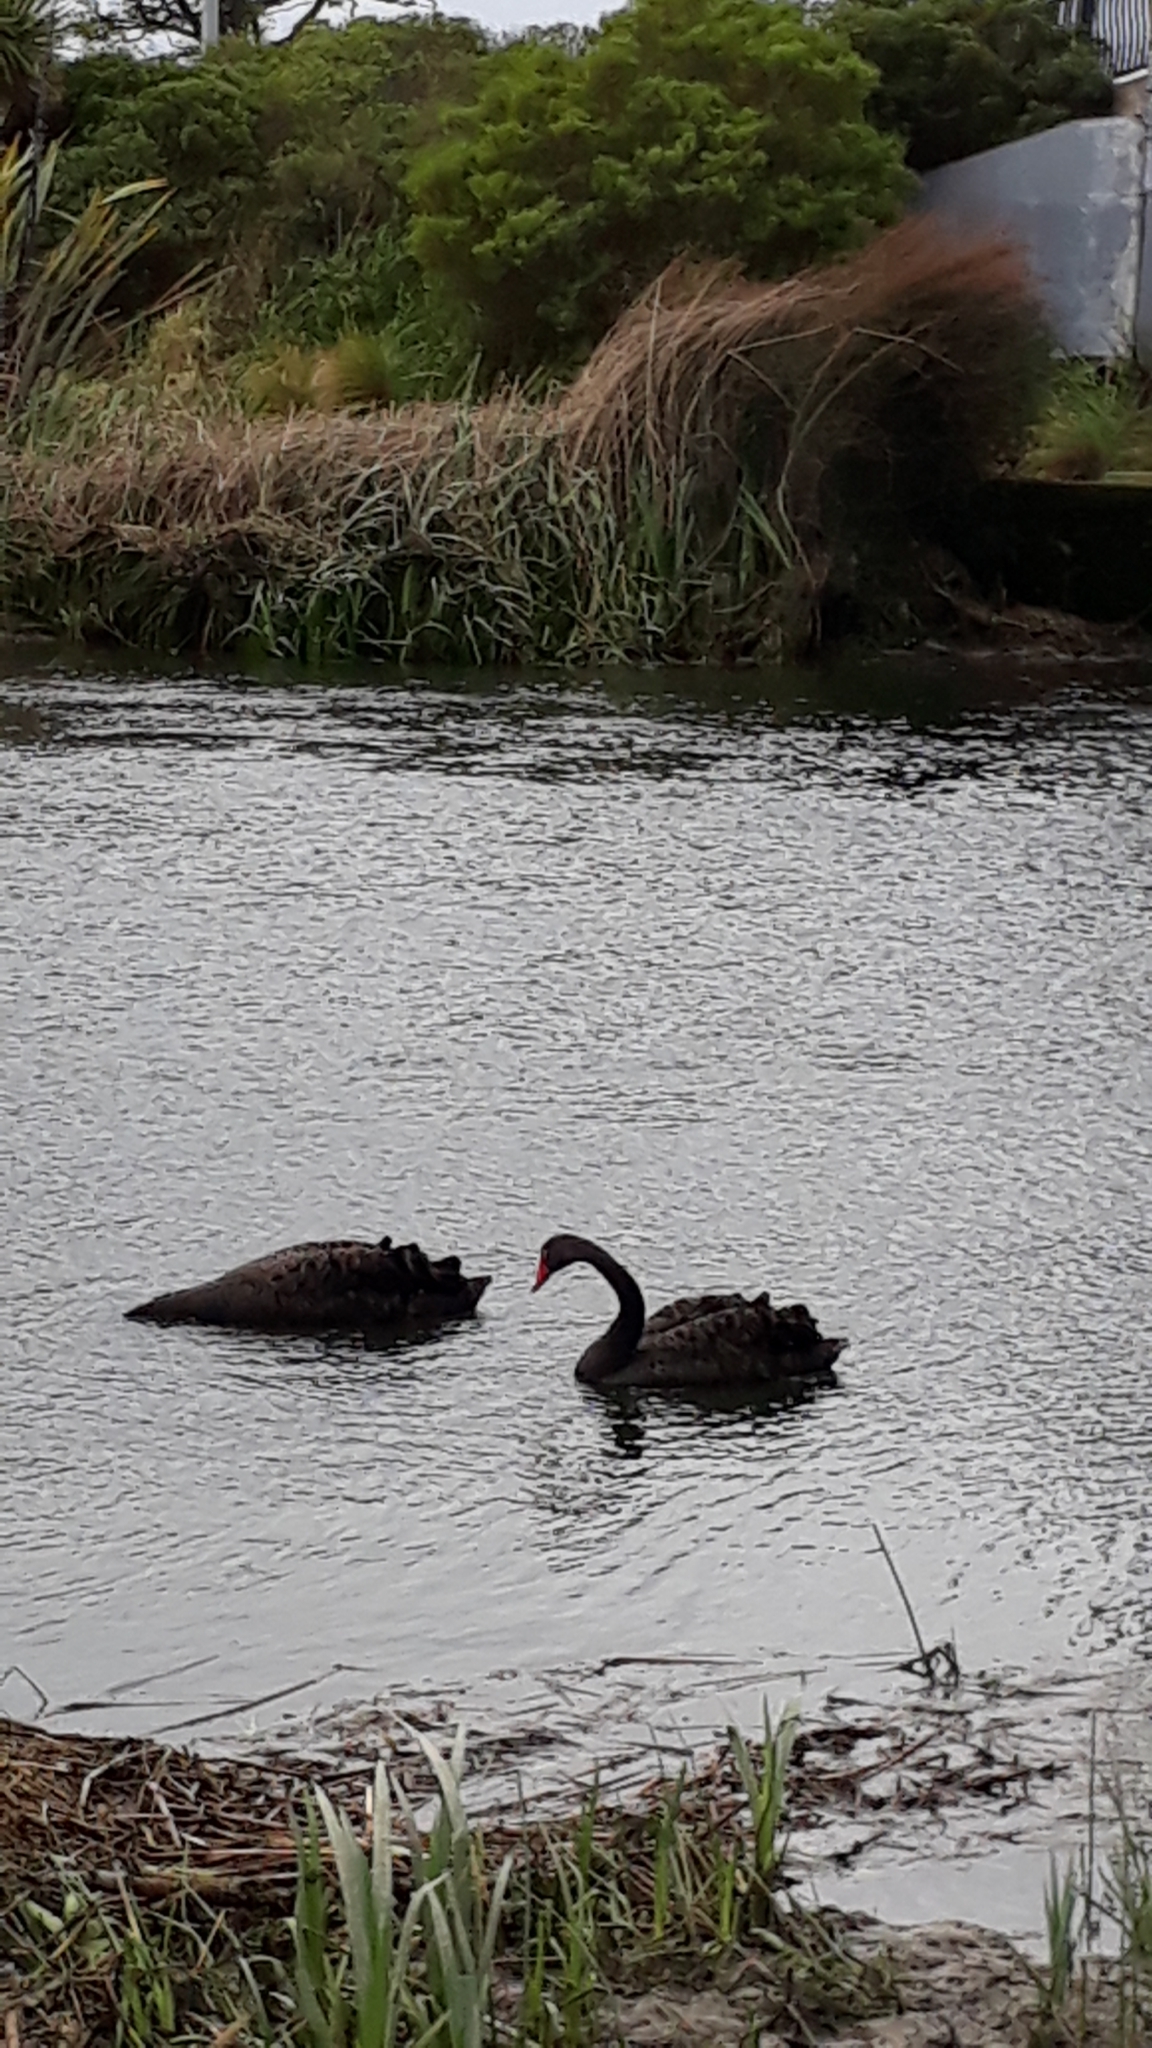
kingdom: Animalia
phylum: Chordata
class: Aves
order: Anseriformes
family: Anatidae
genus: Cygnus
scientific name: Cygnus atratus
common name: Black swan
